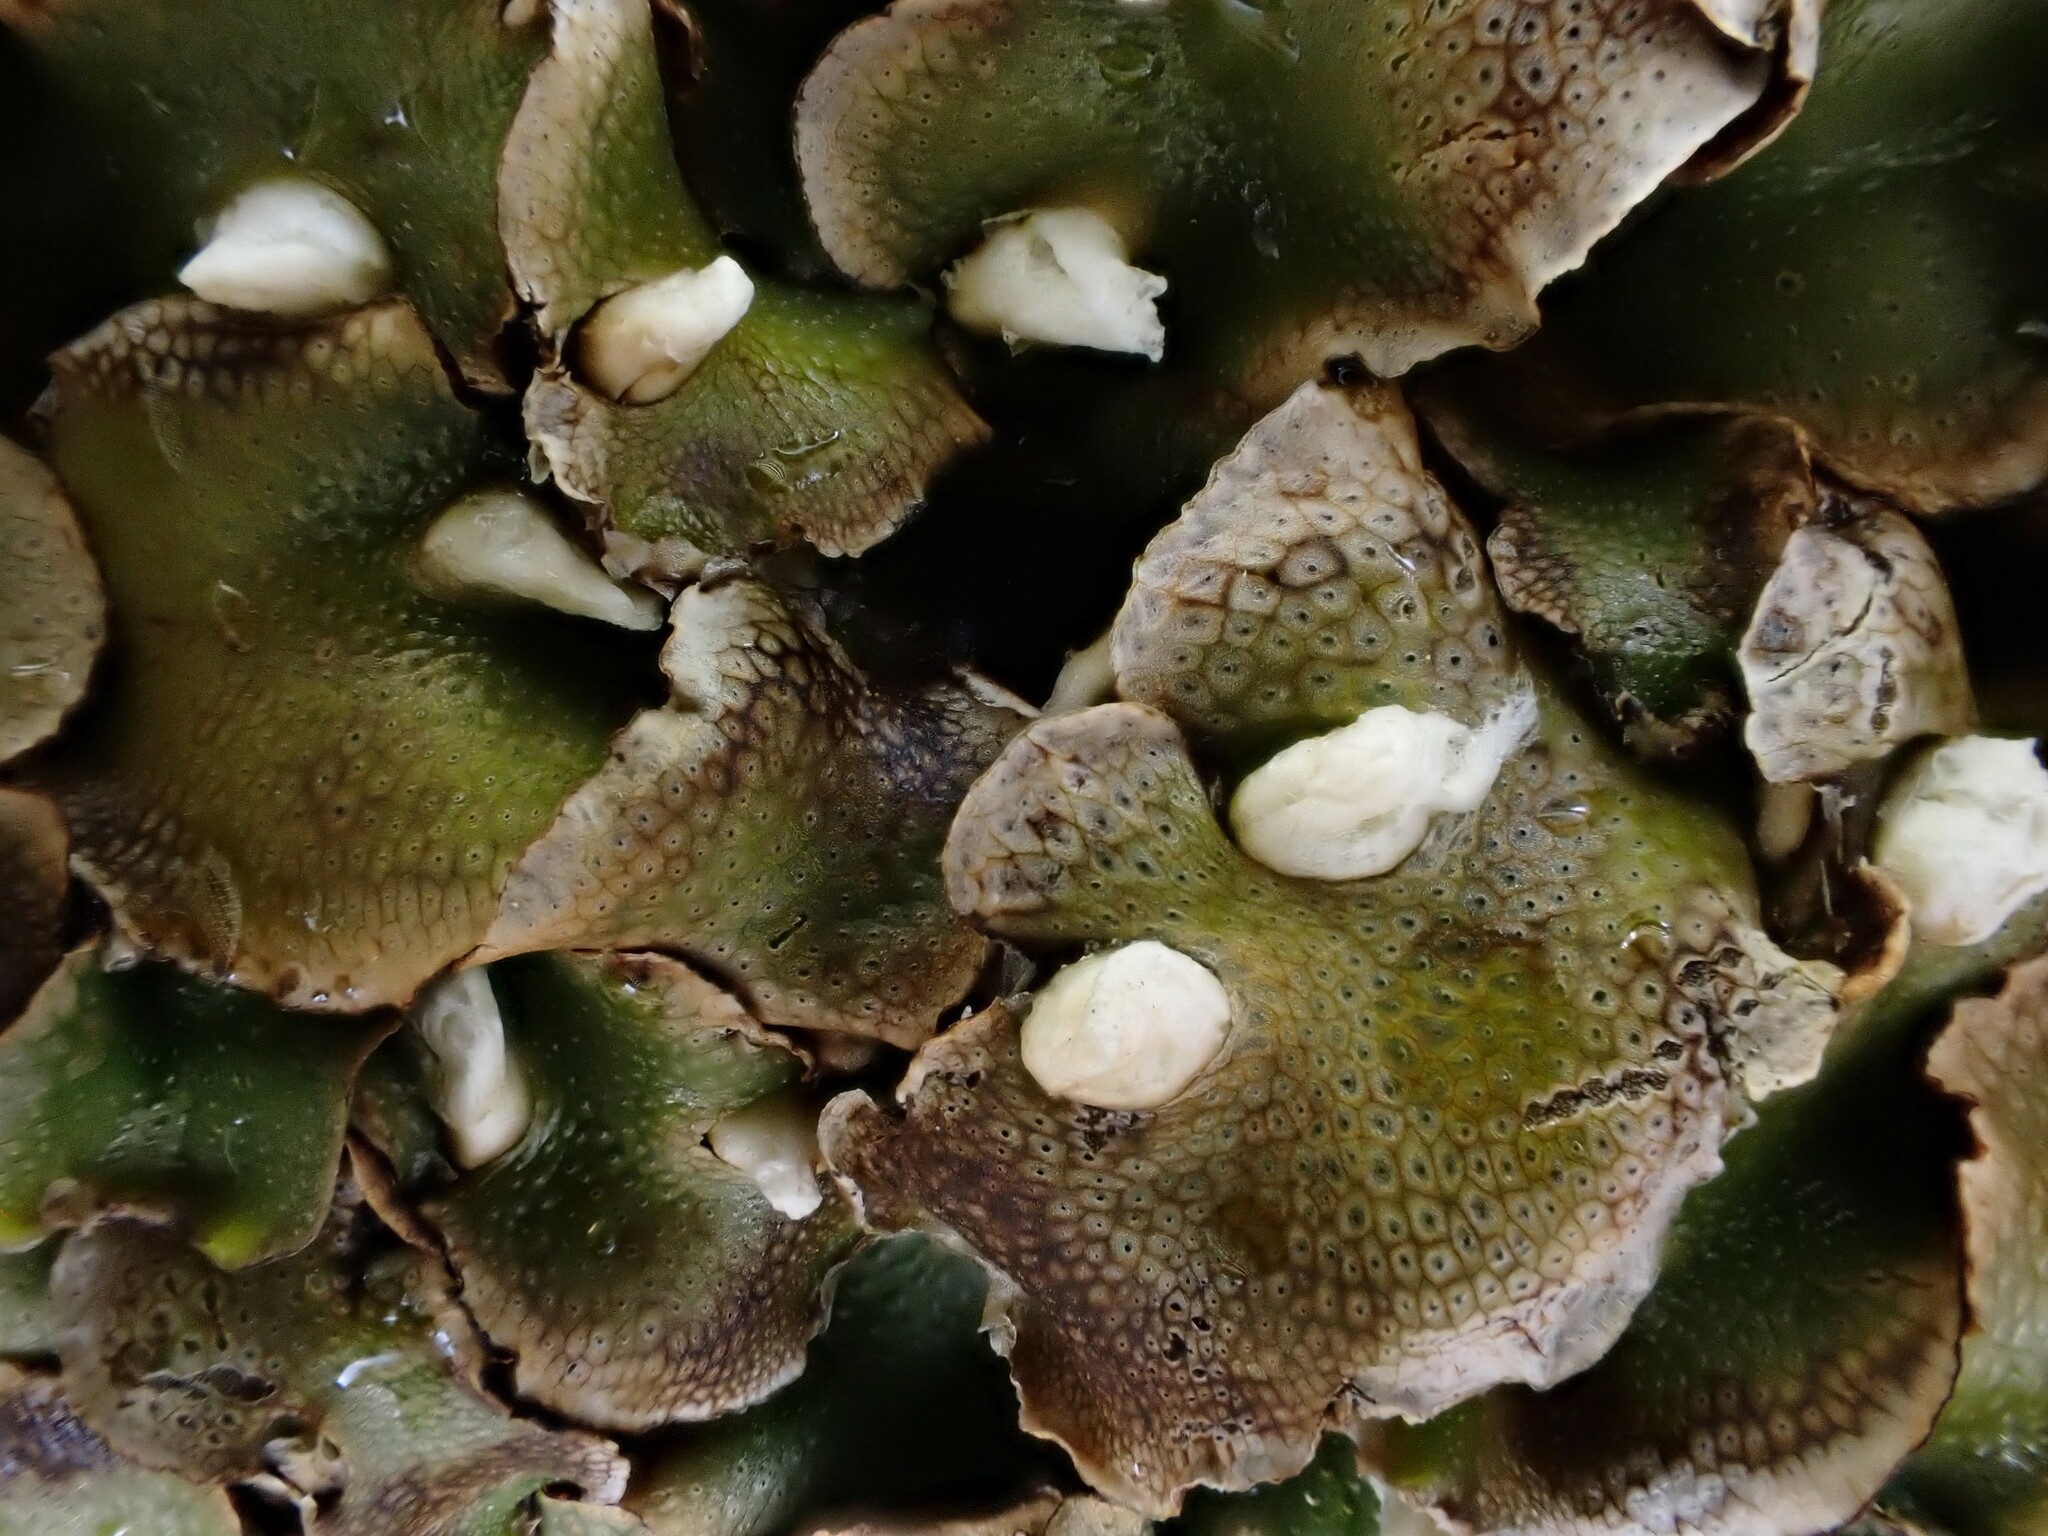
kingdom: Plantae
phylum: Marchantiophyta
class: Marchantiopsida
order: Lunulariales
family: Lunulariaceae
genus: Lunularia
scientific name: Lunularia cruciata
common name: Crescent-cup liverwort
